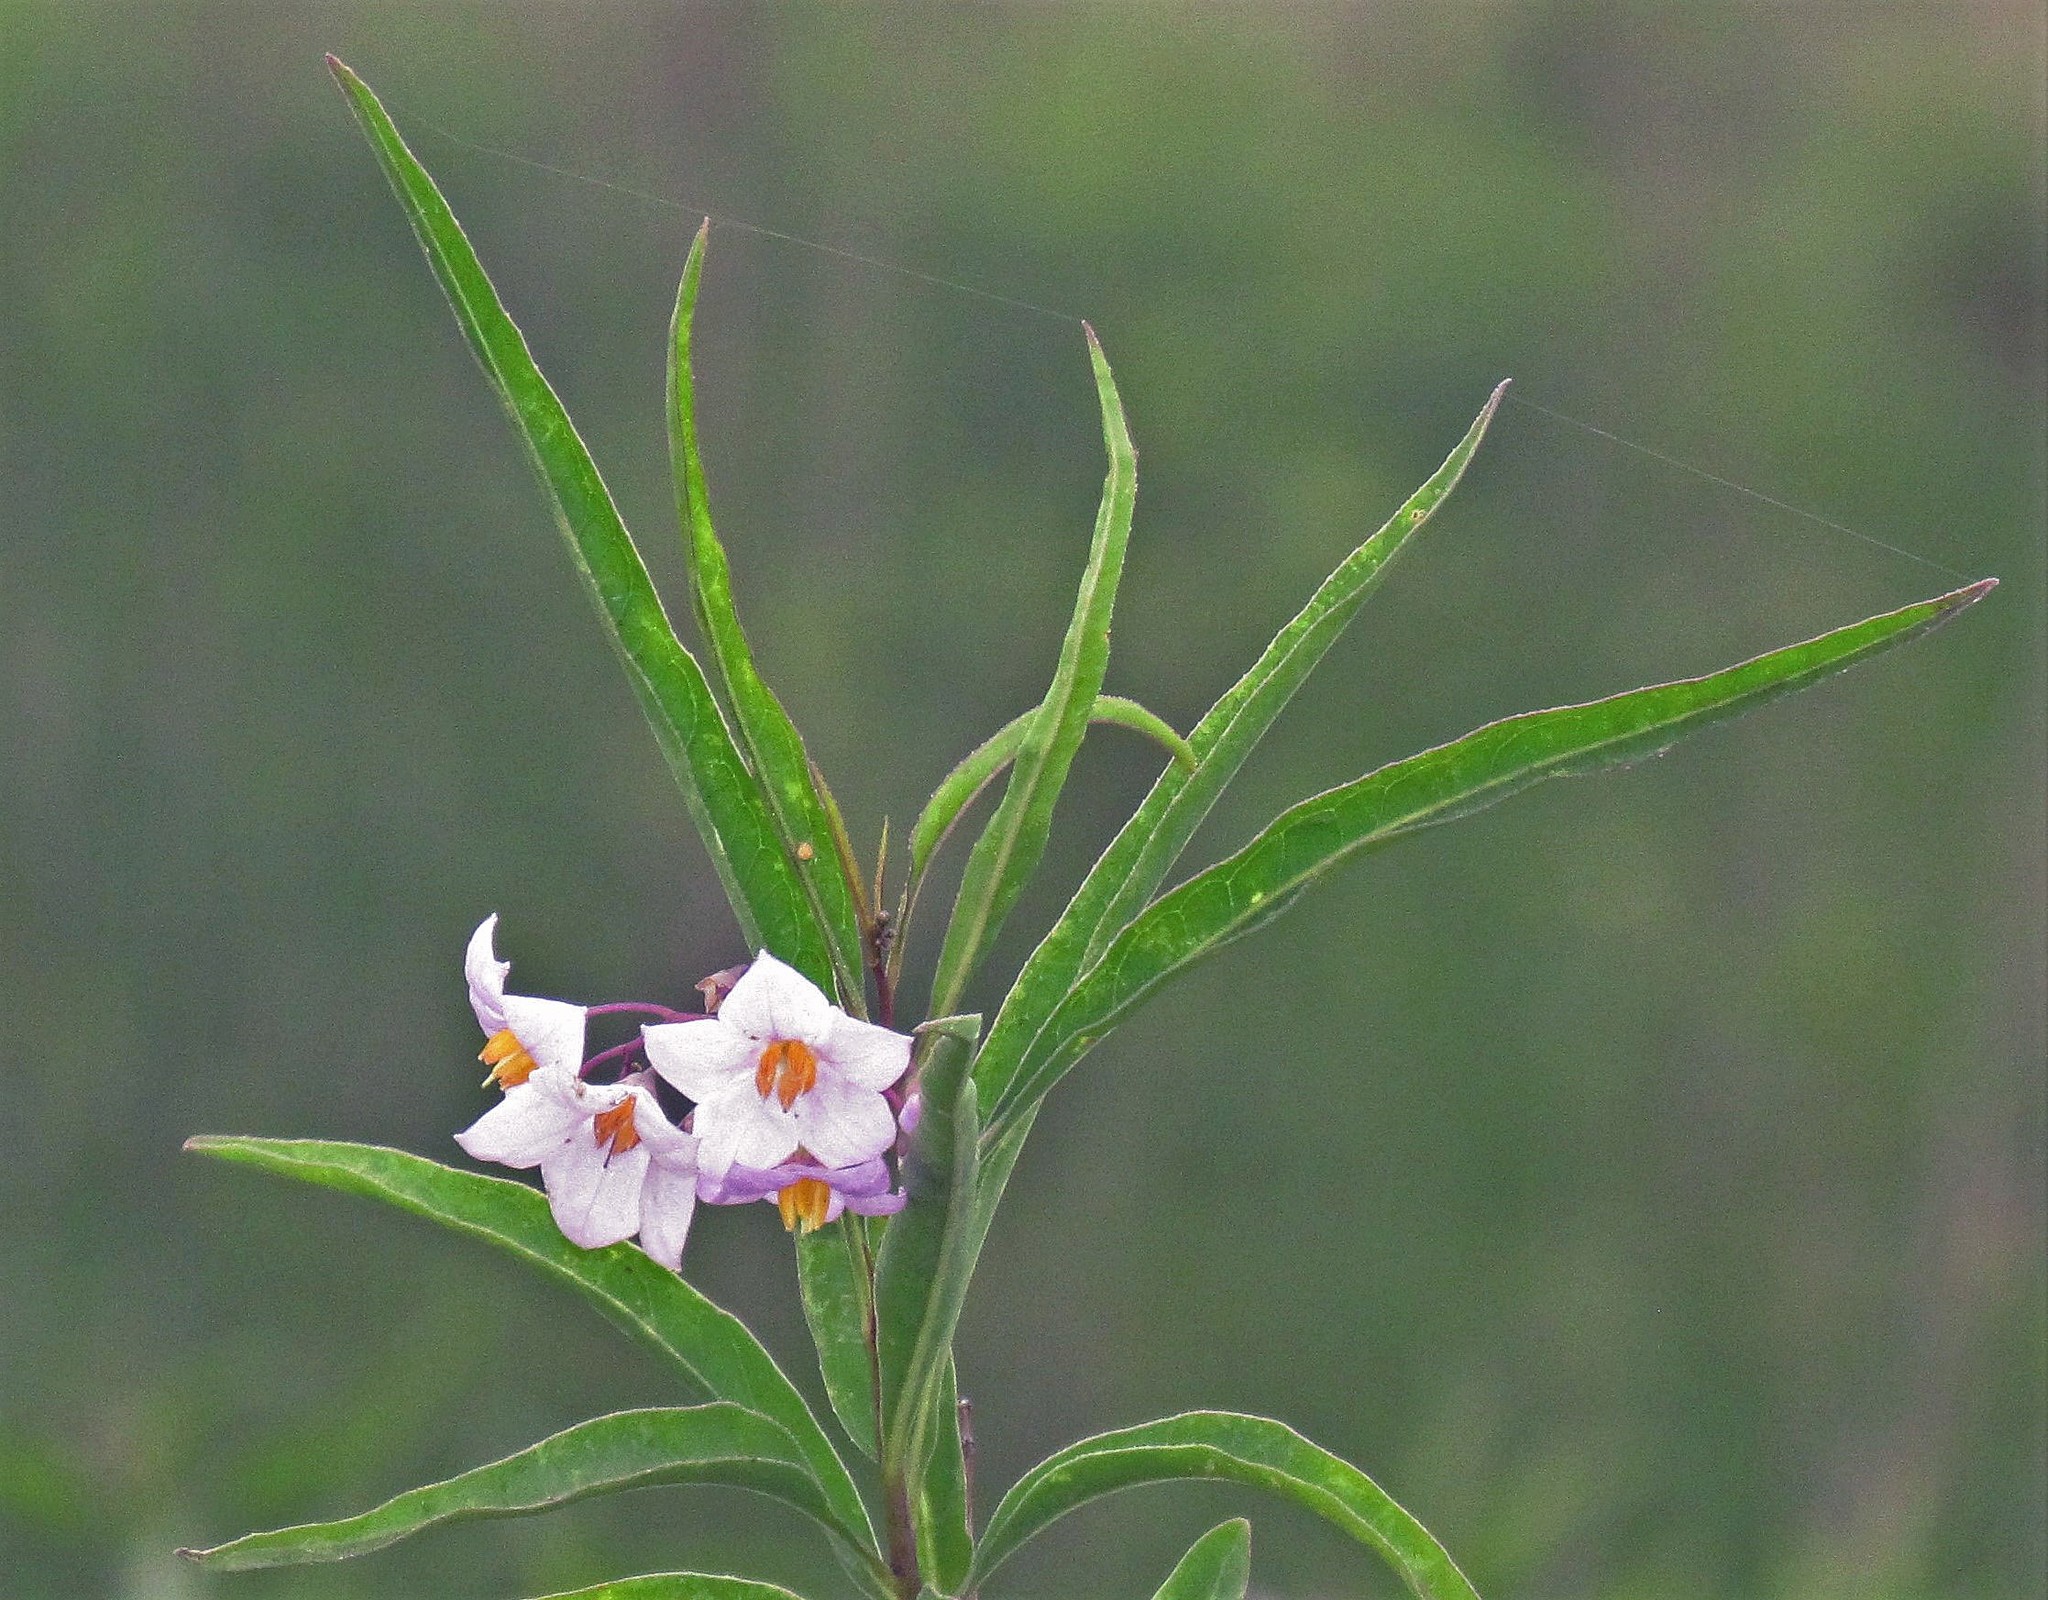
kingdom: Plantae
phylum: Tracheophyta
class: Magnoliopsida
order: Solanales
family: Solanaceae
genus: Solanum
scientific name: Solanum glaucophyllum
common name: Waxyleaf nightshade
